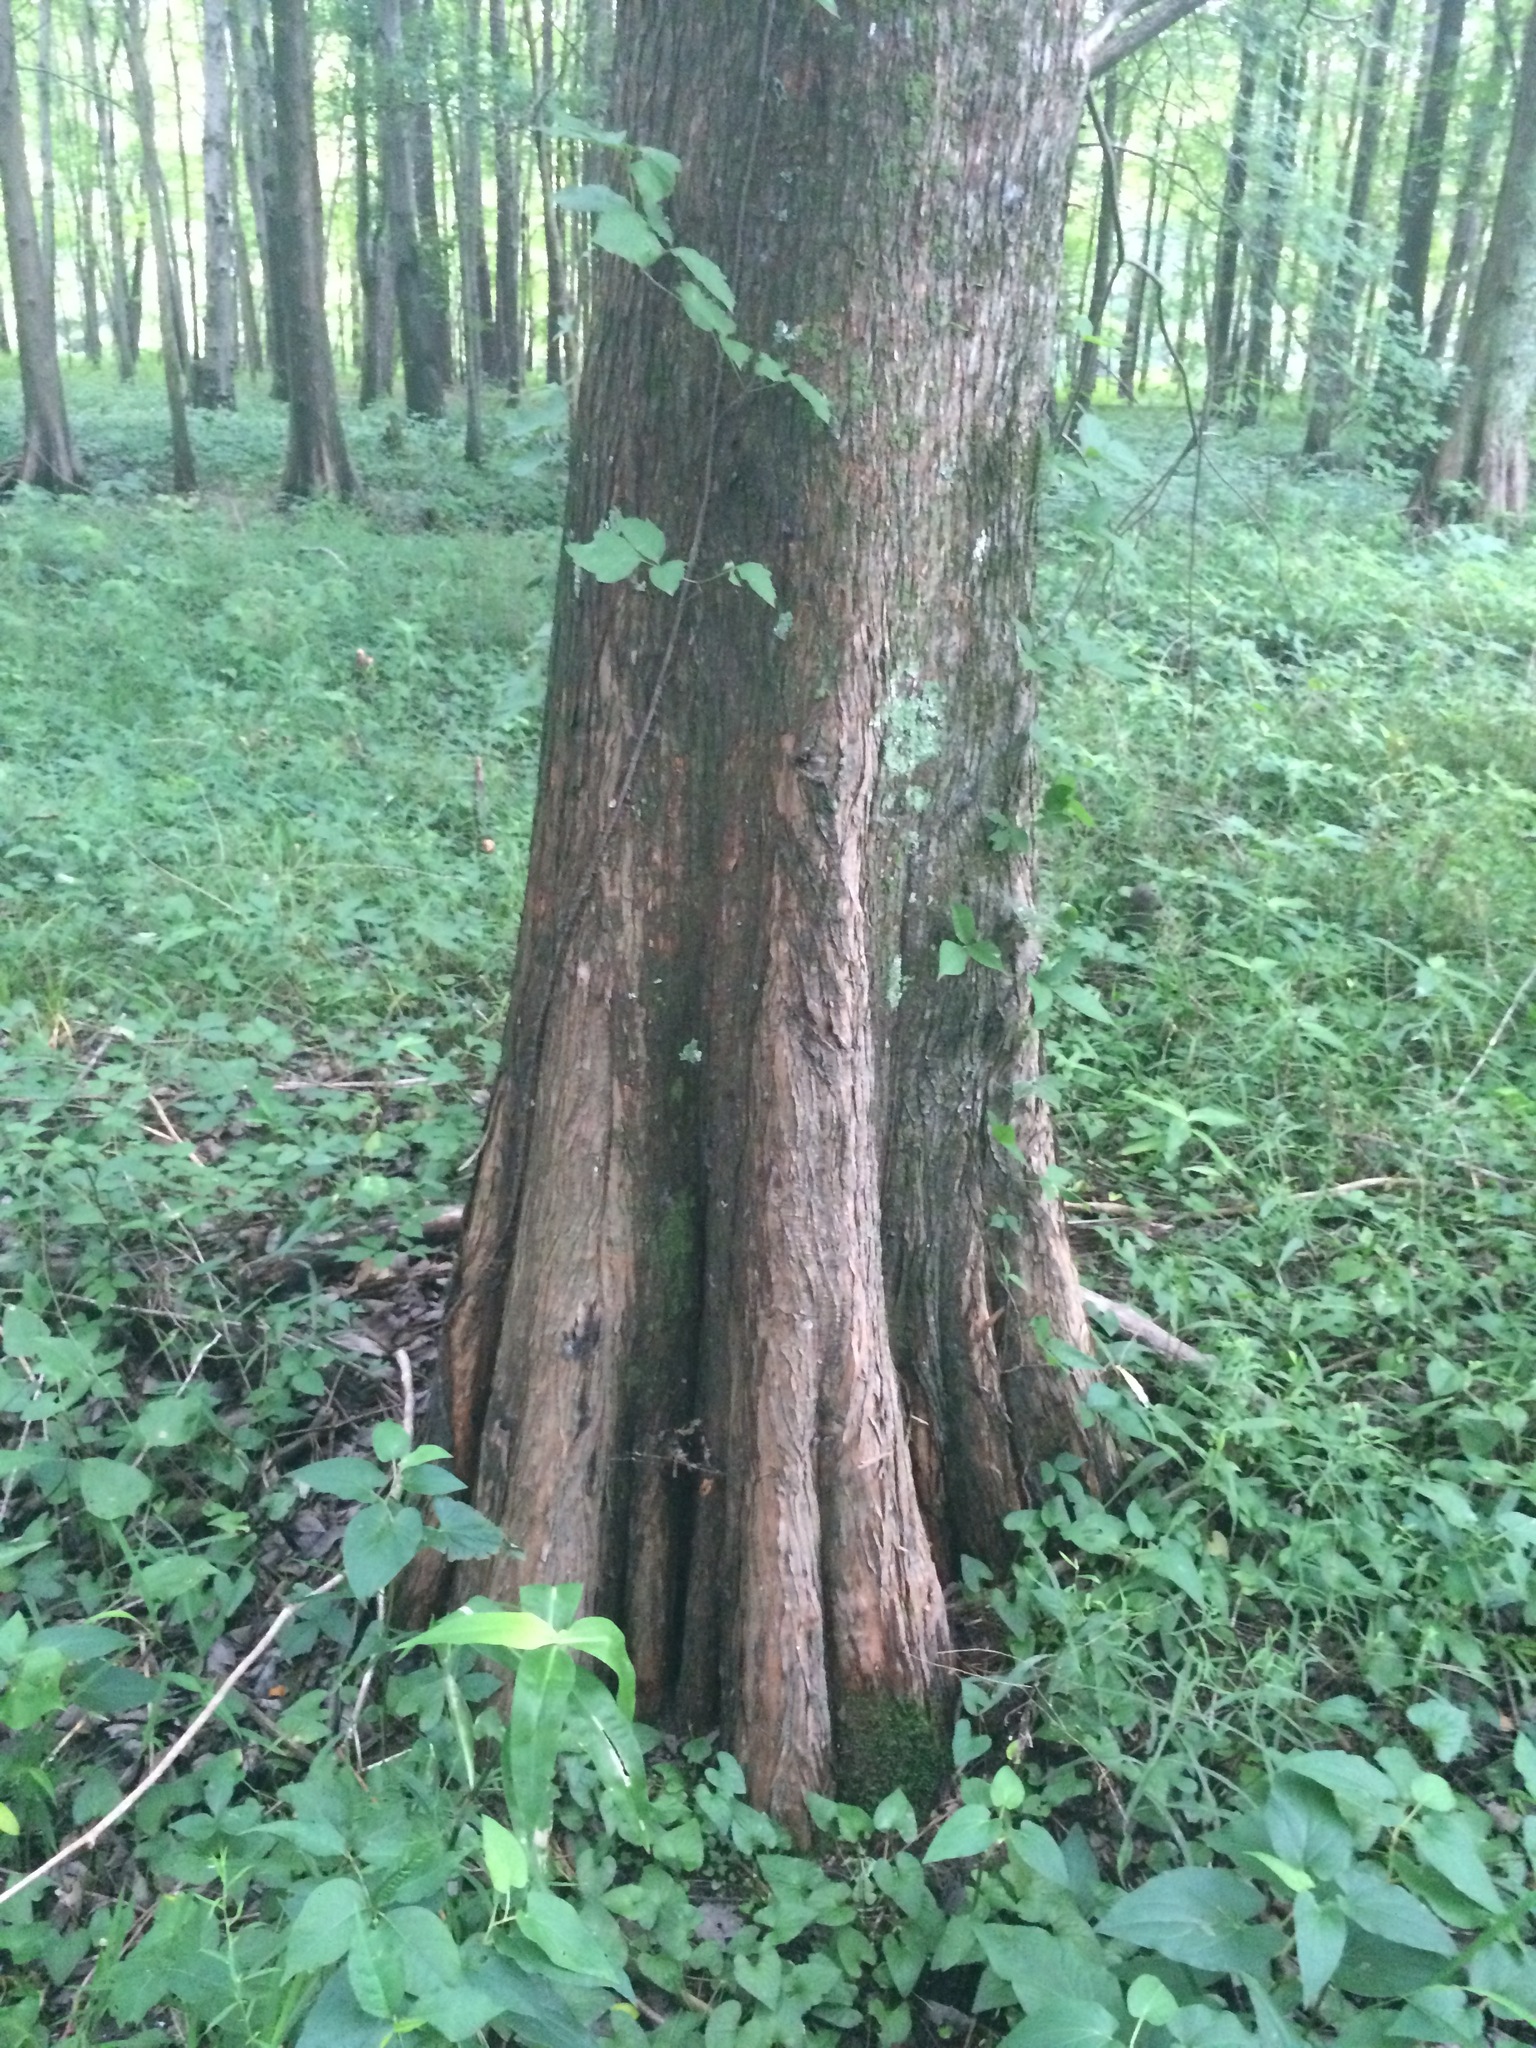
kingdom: Plantae
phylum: Tracheophyta
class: Pinopsida
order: Pinales
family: Cupressaceae
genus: Taxodium
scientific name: Taxodium distichum
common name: Bald cypress
